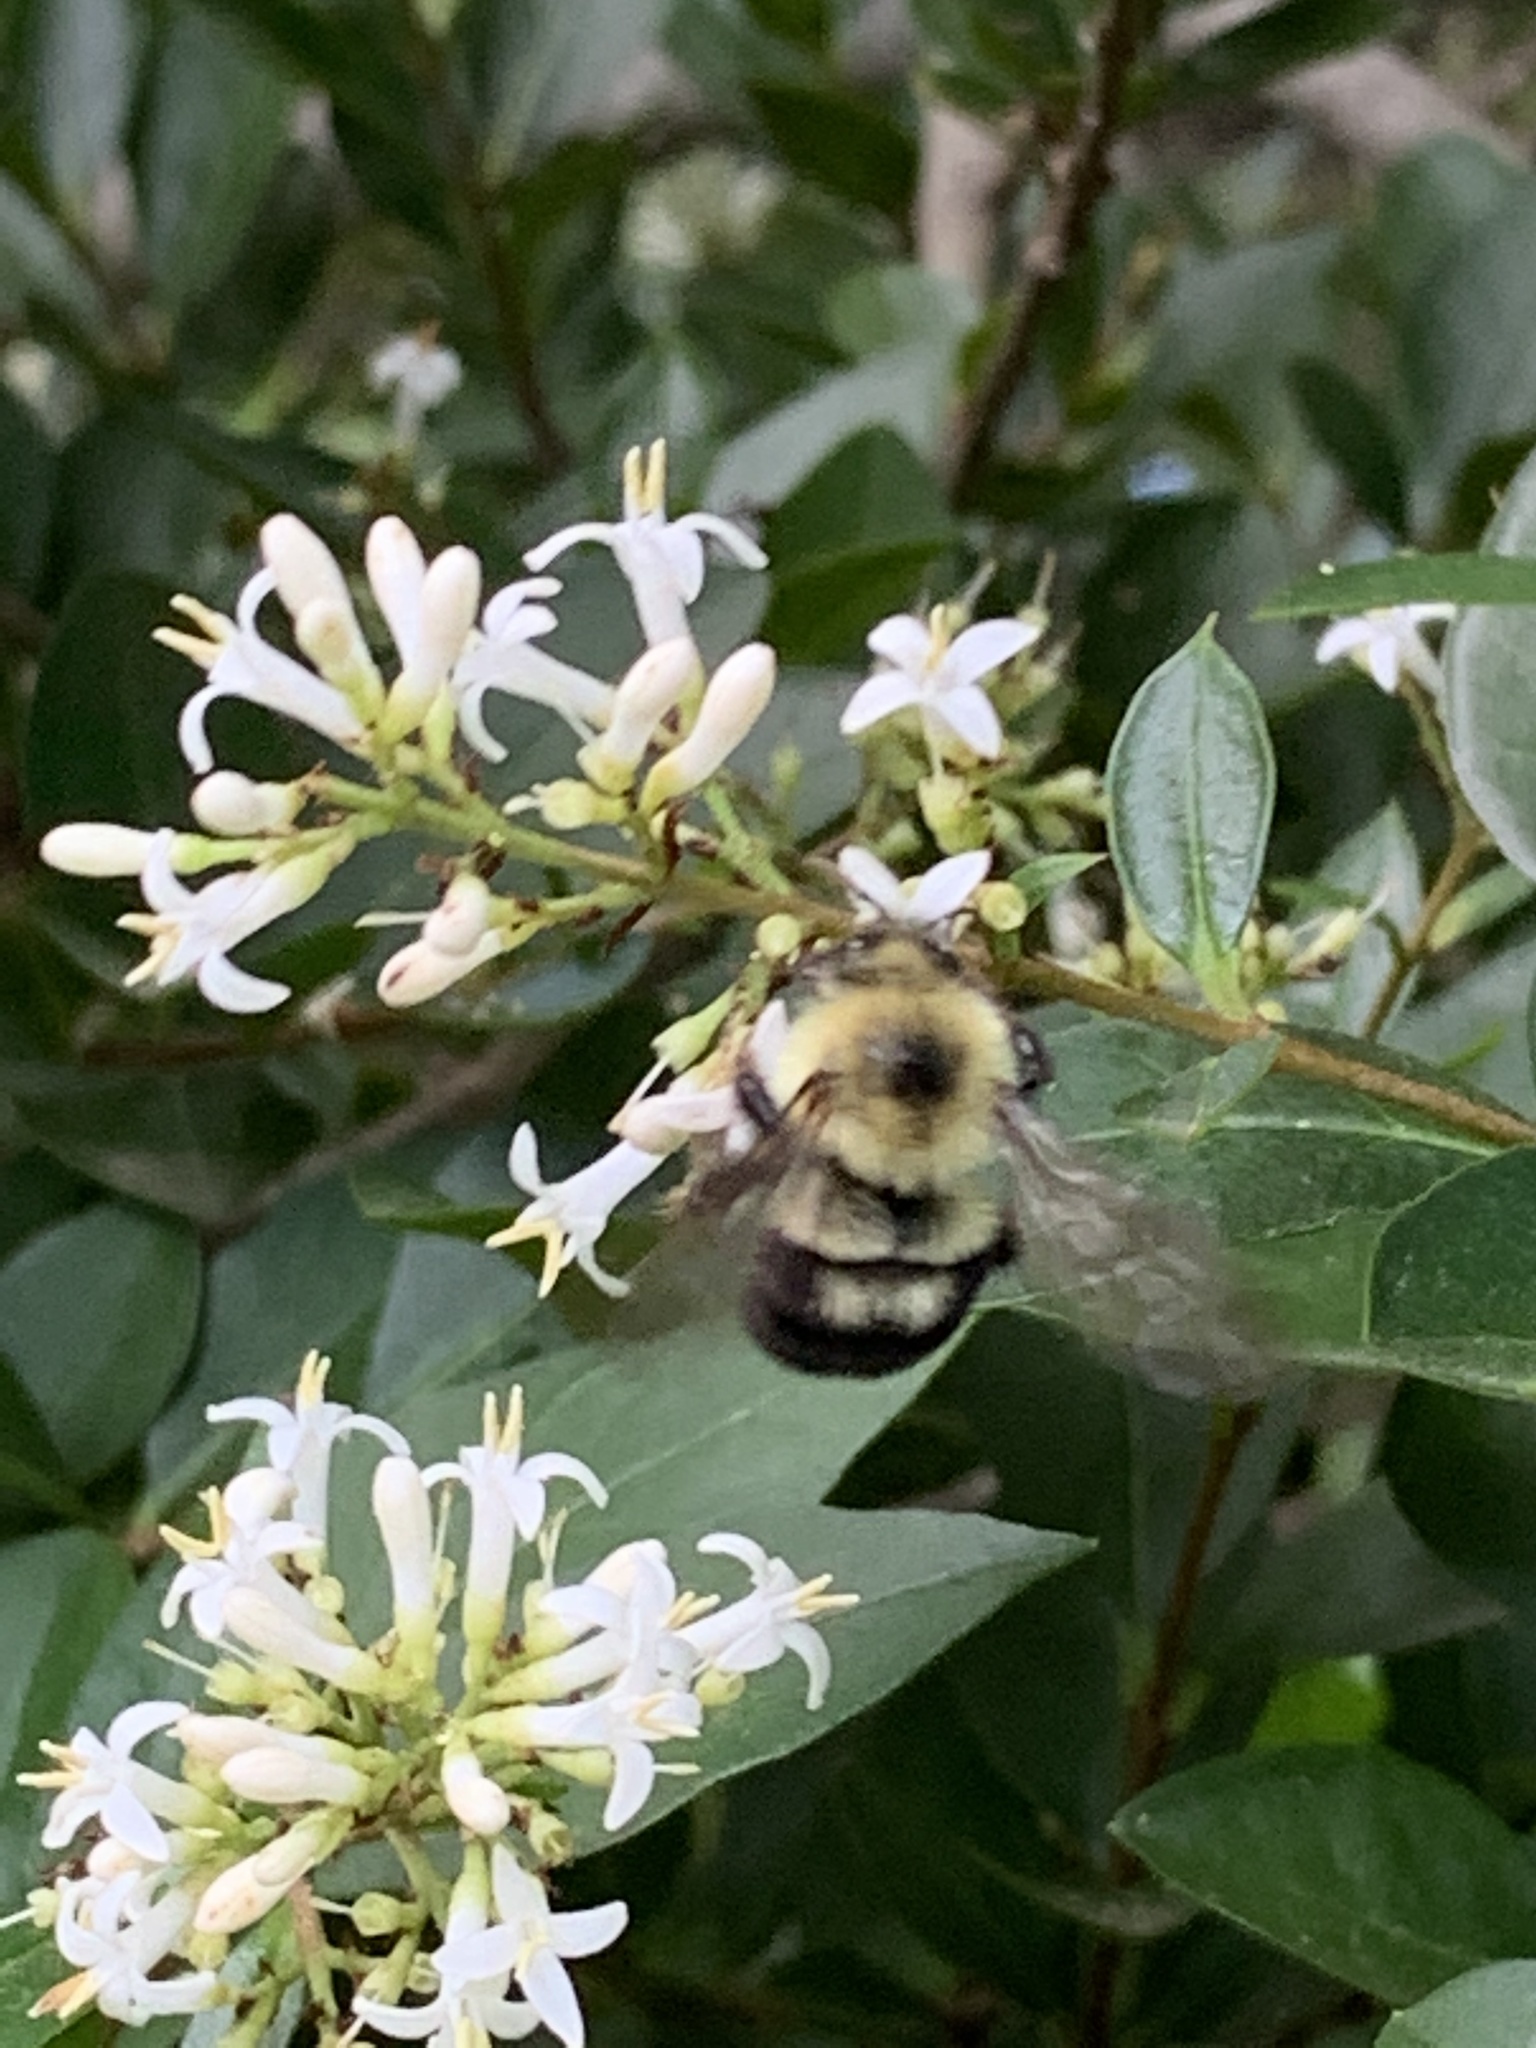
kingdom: Animalia
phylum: Arthropoda
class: Insecta
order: Hymenoptera
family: Apidae
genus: Bombus
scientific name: Bombus bimaculatus
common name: Two-spotted bumble bee
